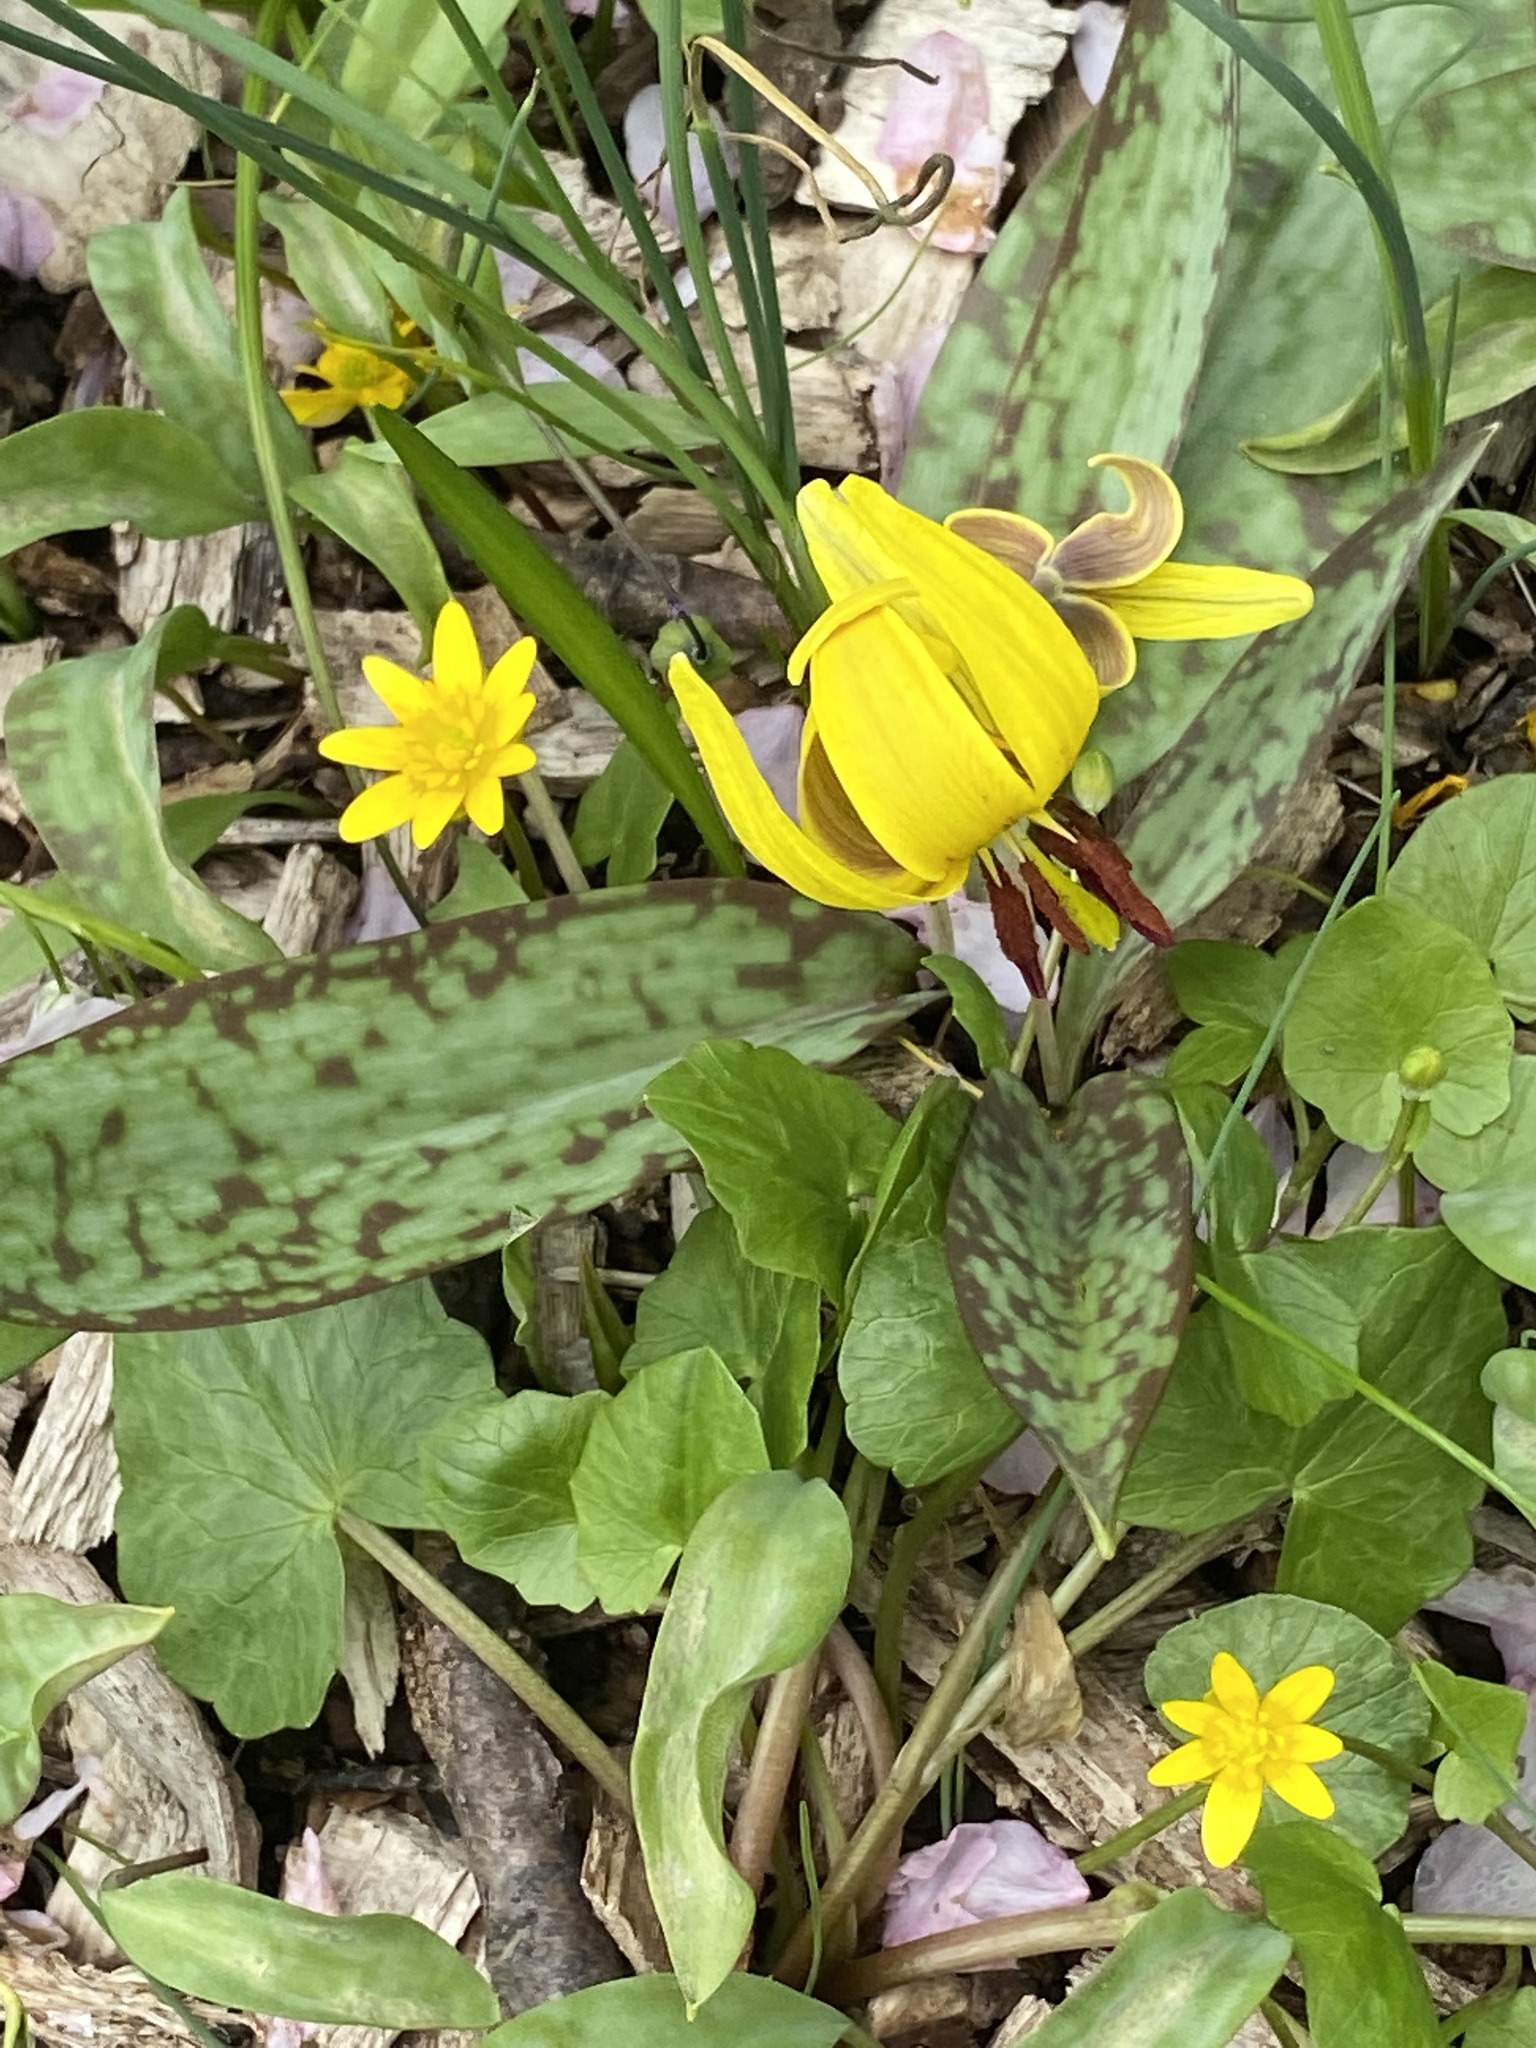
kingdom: Plantae
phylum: Tracheophyta
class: Liliopsida
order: Liliales
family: Liliaceae
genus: Erythronium
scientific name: Erythronium americanum
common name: Yellow adder's-tongue
